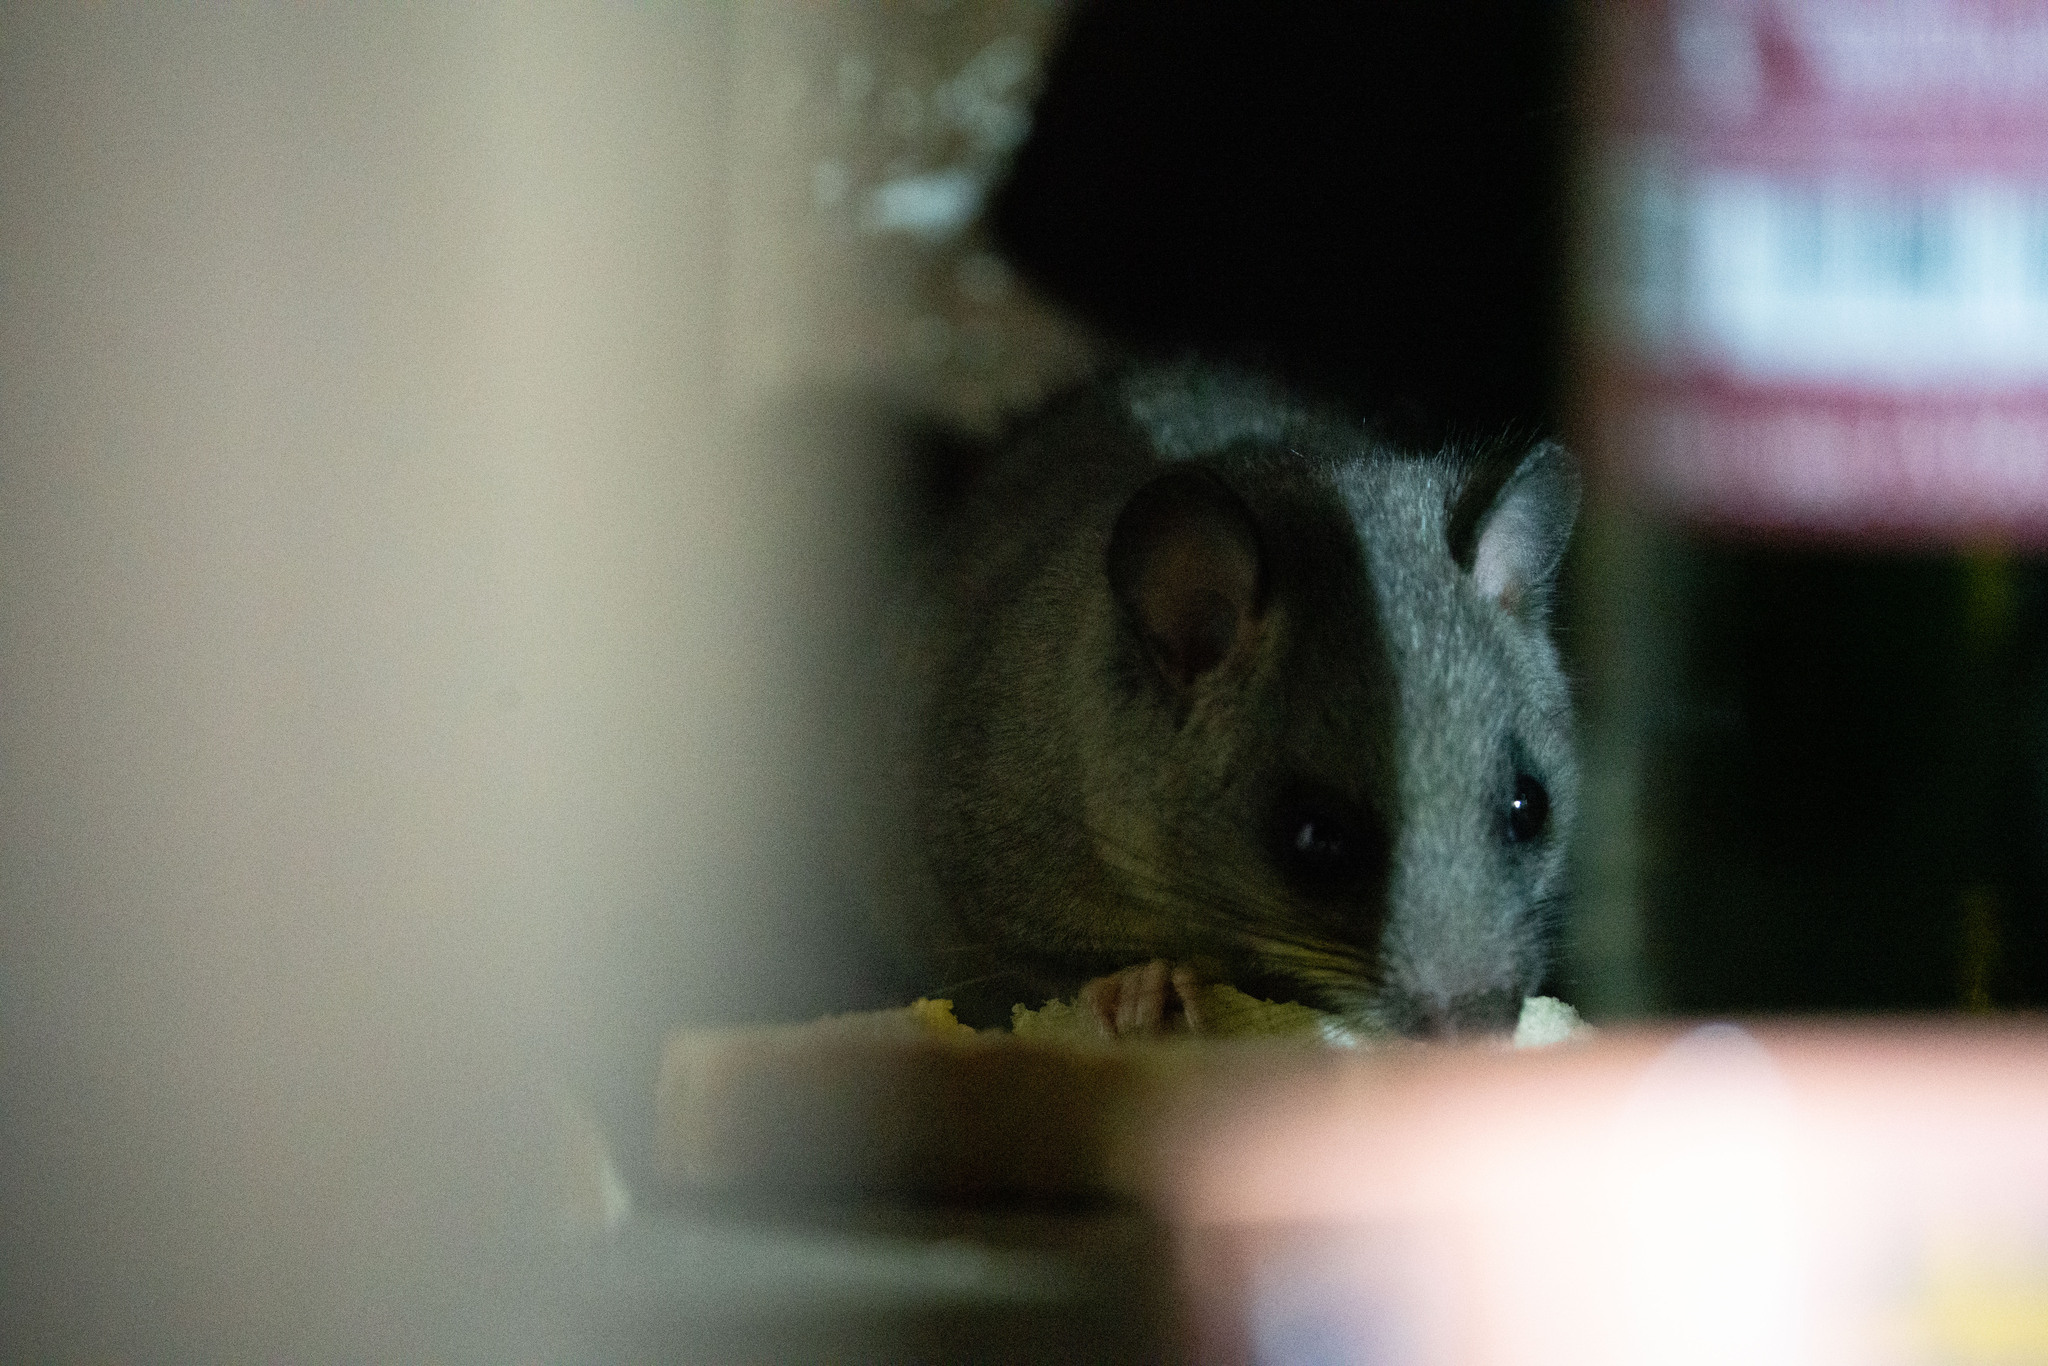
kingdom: Animalia
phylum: Chordata
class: Mammalia
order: Rodentia
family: Gliridae
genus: Glis
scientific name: Glis glis
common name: Fat dormouse
